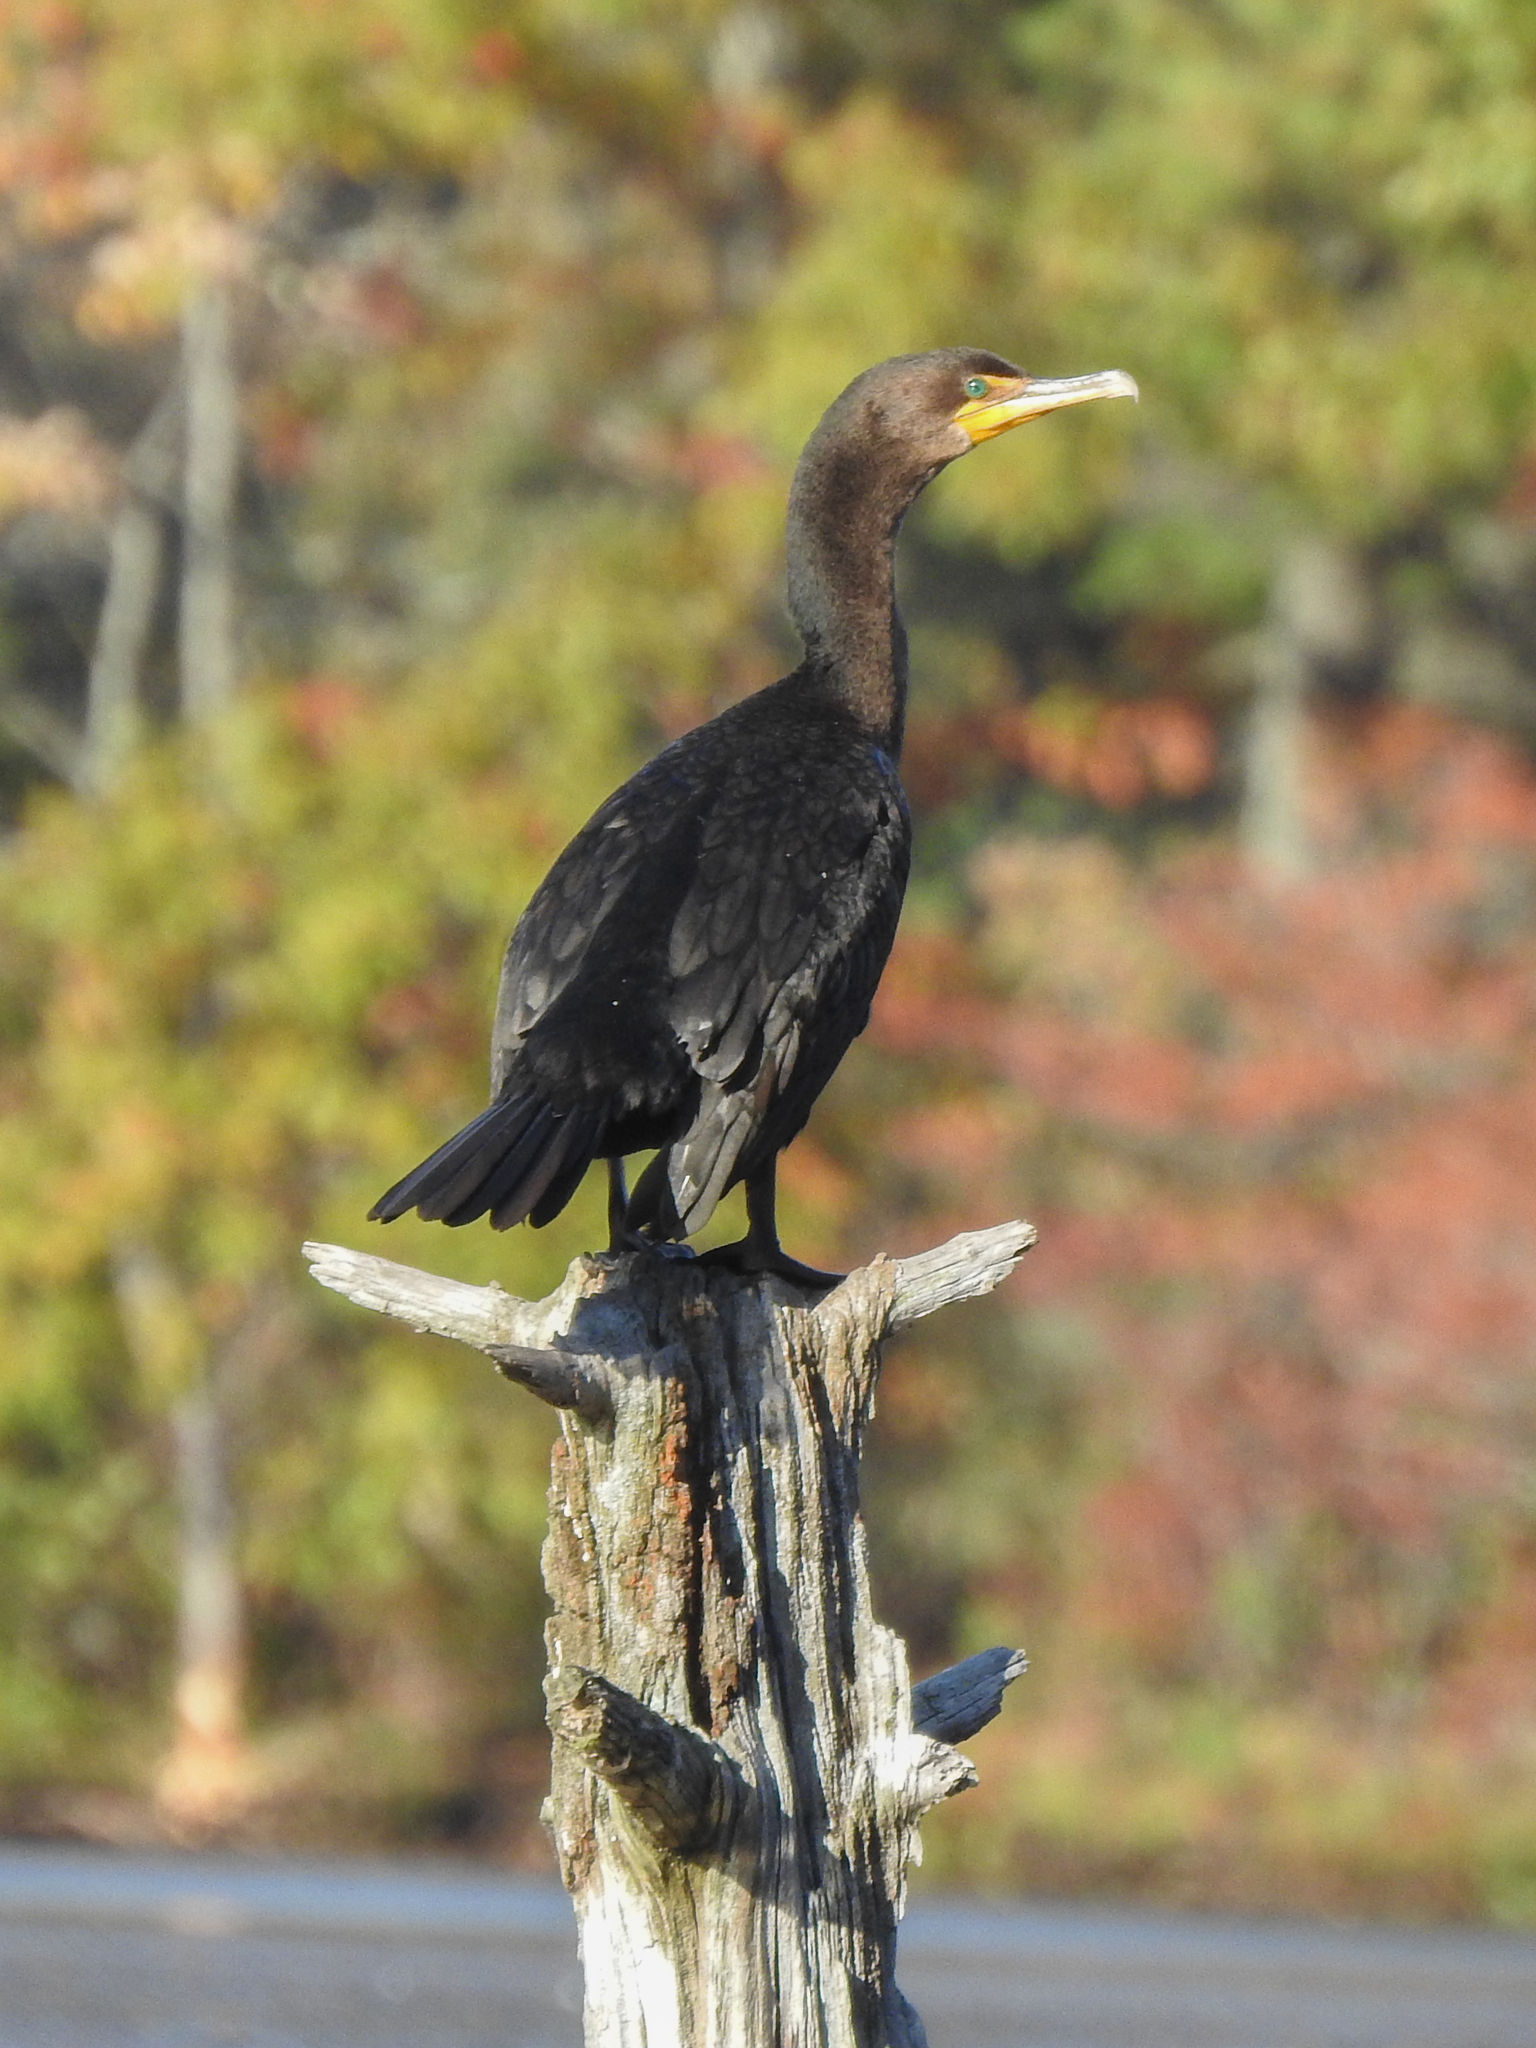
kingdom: Animalia
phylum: Chordata
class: Aves
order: Suliformes
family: Phalacrocoracidae
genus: Phalacrocorax
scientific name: Phalacrocorax auritus
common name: Double-crested cormorant
